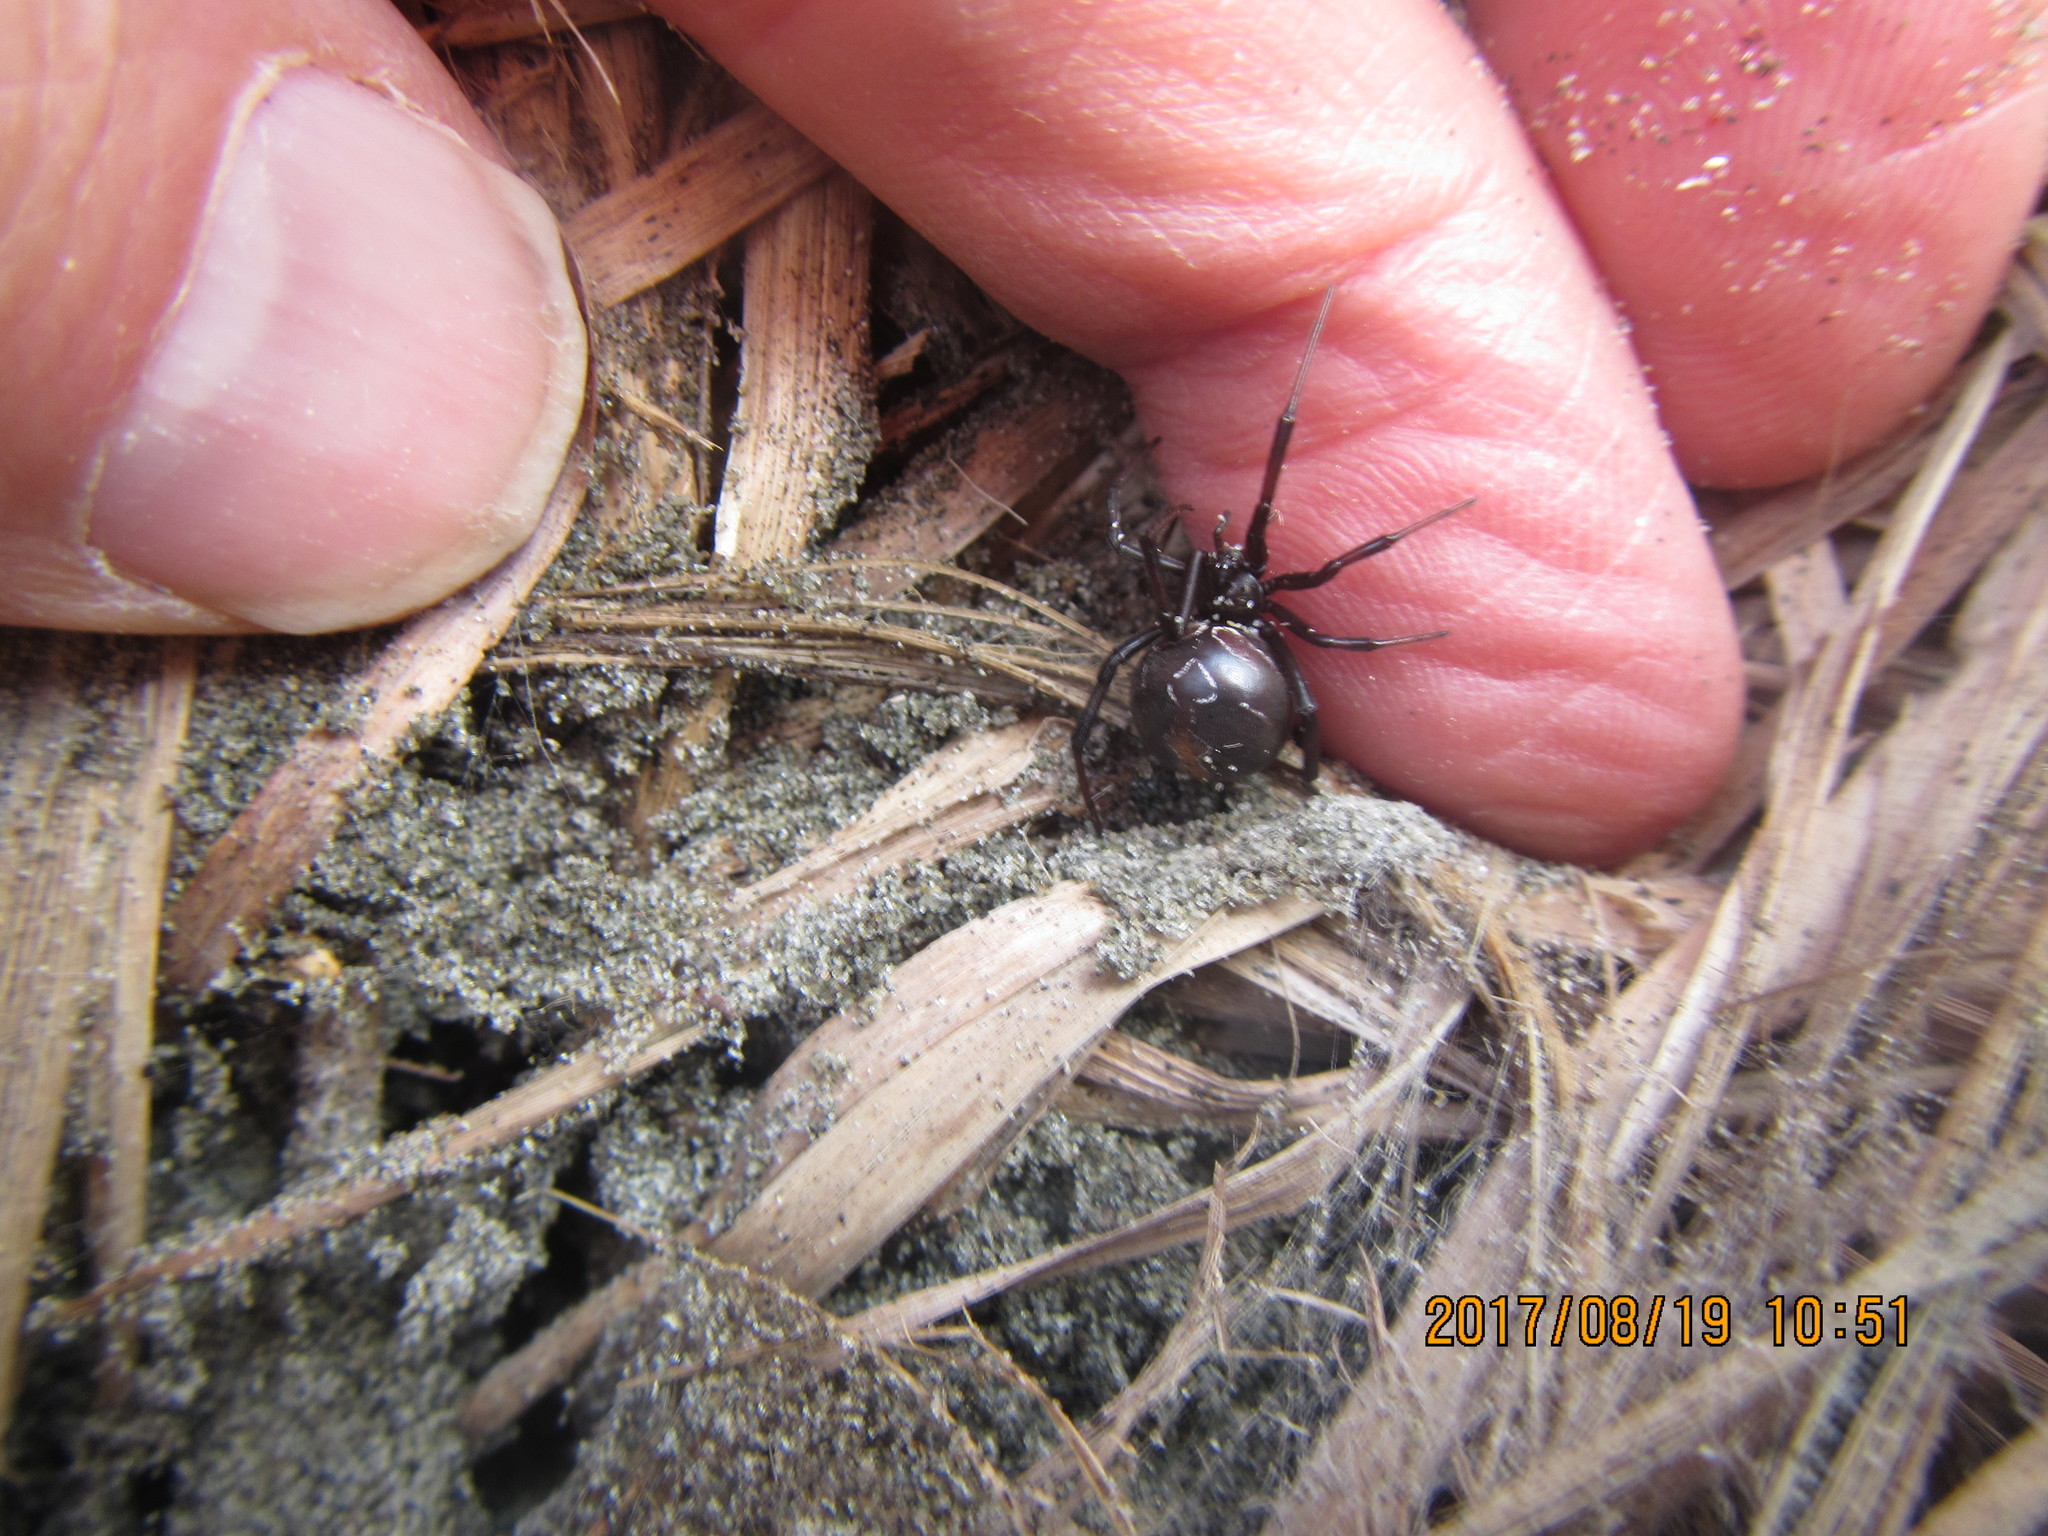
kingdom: Animalia
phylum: Arthropoda
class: Arachnida
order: Araneae
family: Theridiidae
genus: Latrodectus
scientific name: Latrodectus katipo
